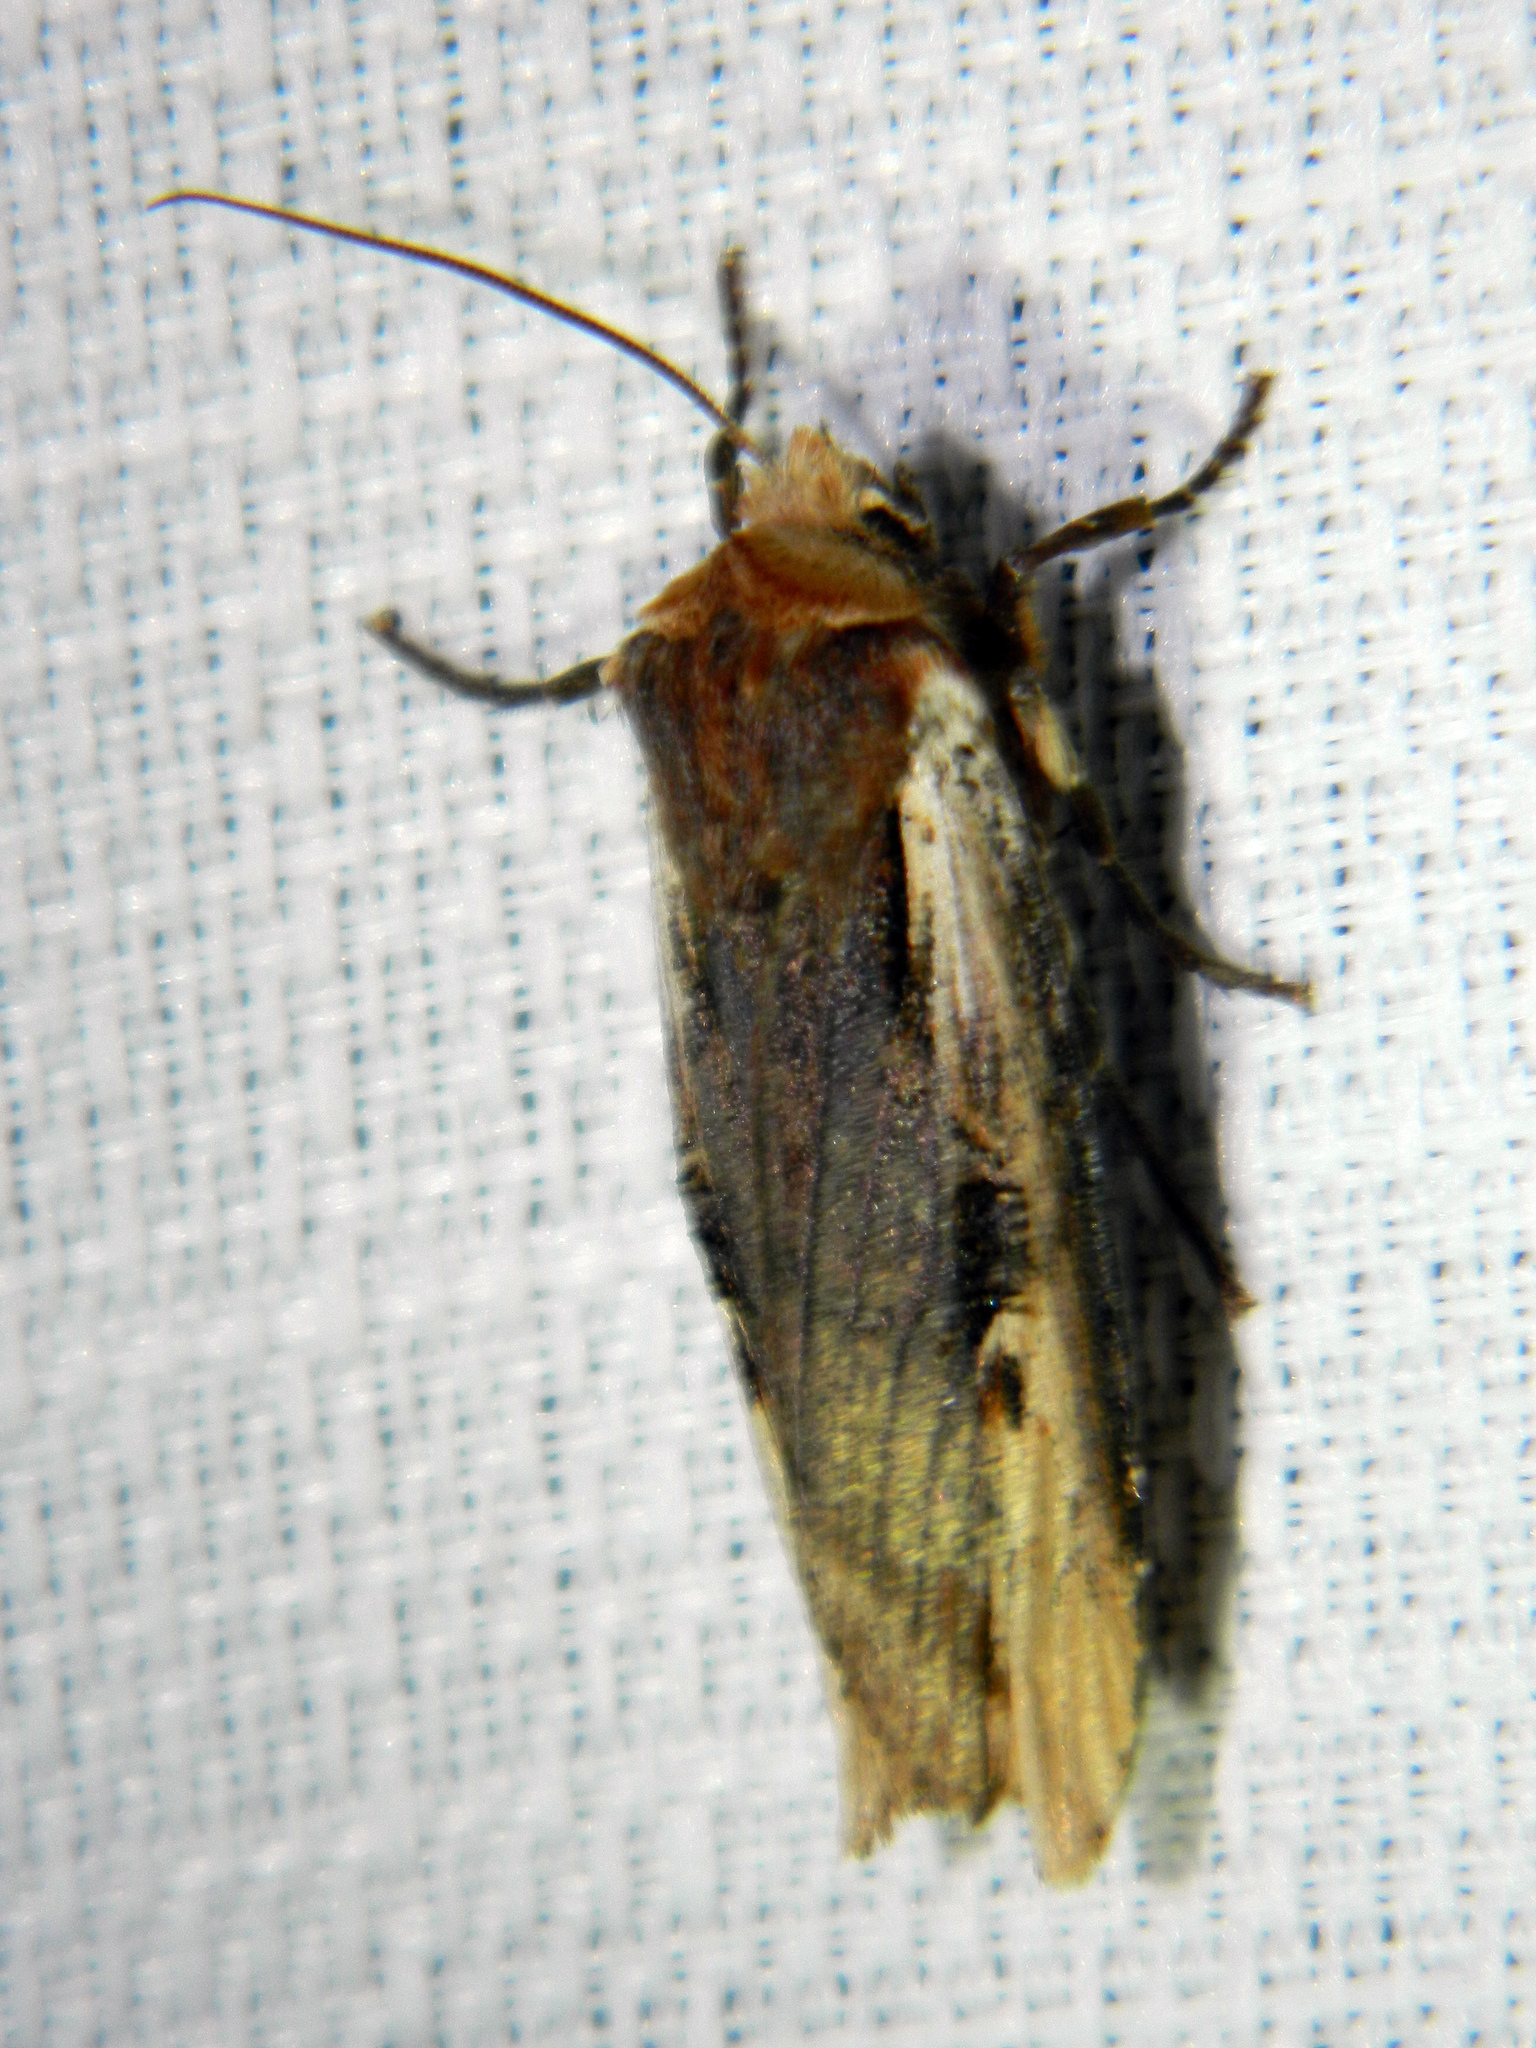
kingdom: Animalia
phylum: Arthropoda
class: Insecta
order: Lepidoptera
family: Noctuidae
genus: Xylena
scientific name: Xylena curvimacula
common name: Dot-and-dash swordgrass moth
